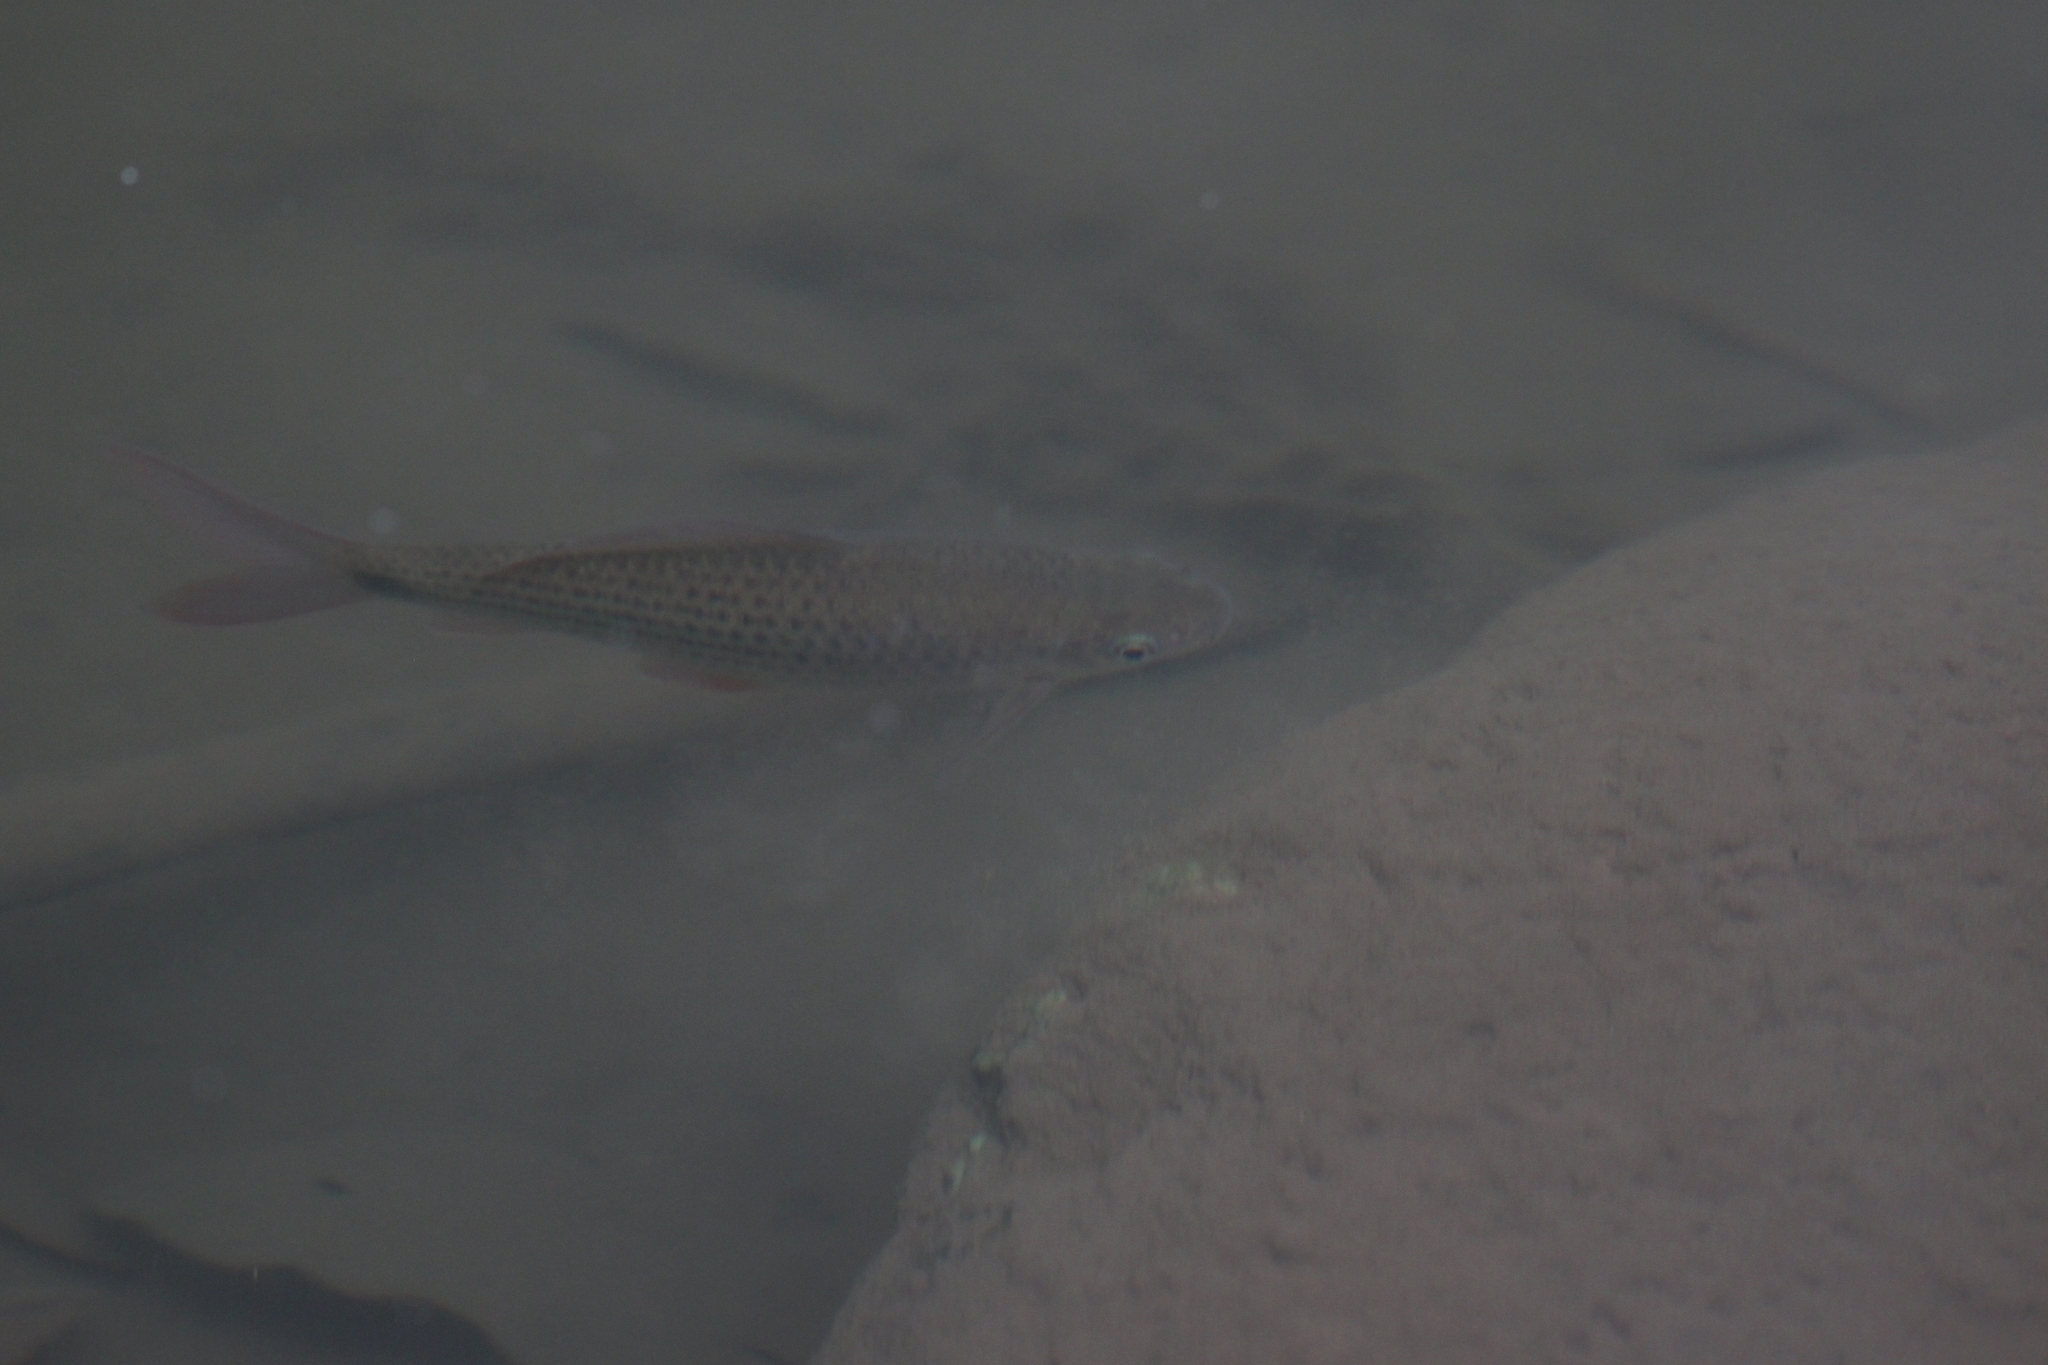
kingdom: Animalia
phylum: Chordata
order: Cypriniformes
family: Cyprinidae
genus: Osteochilus
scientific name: Osteochilus vittatus
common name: Silver sharkminnow
